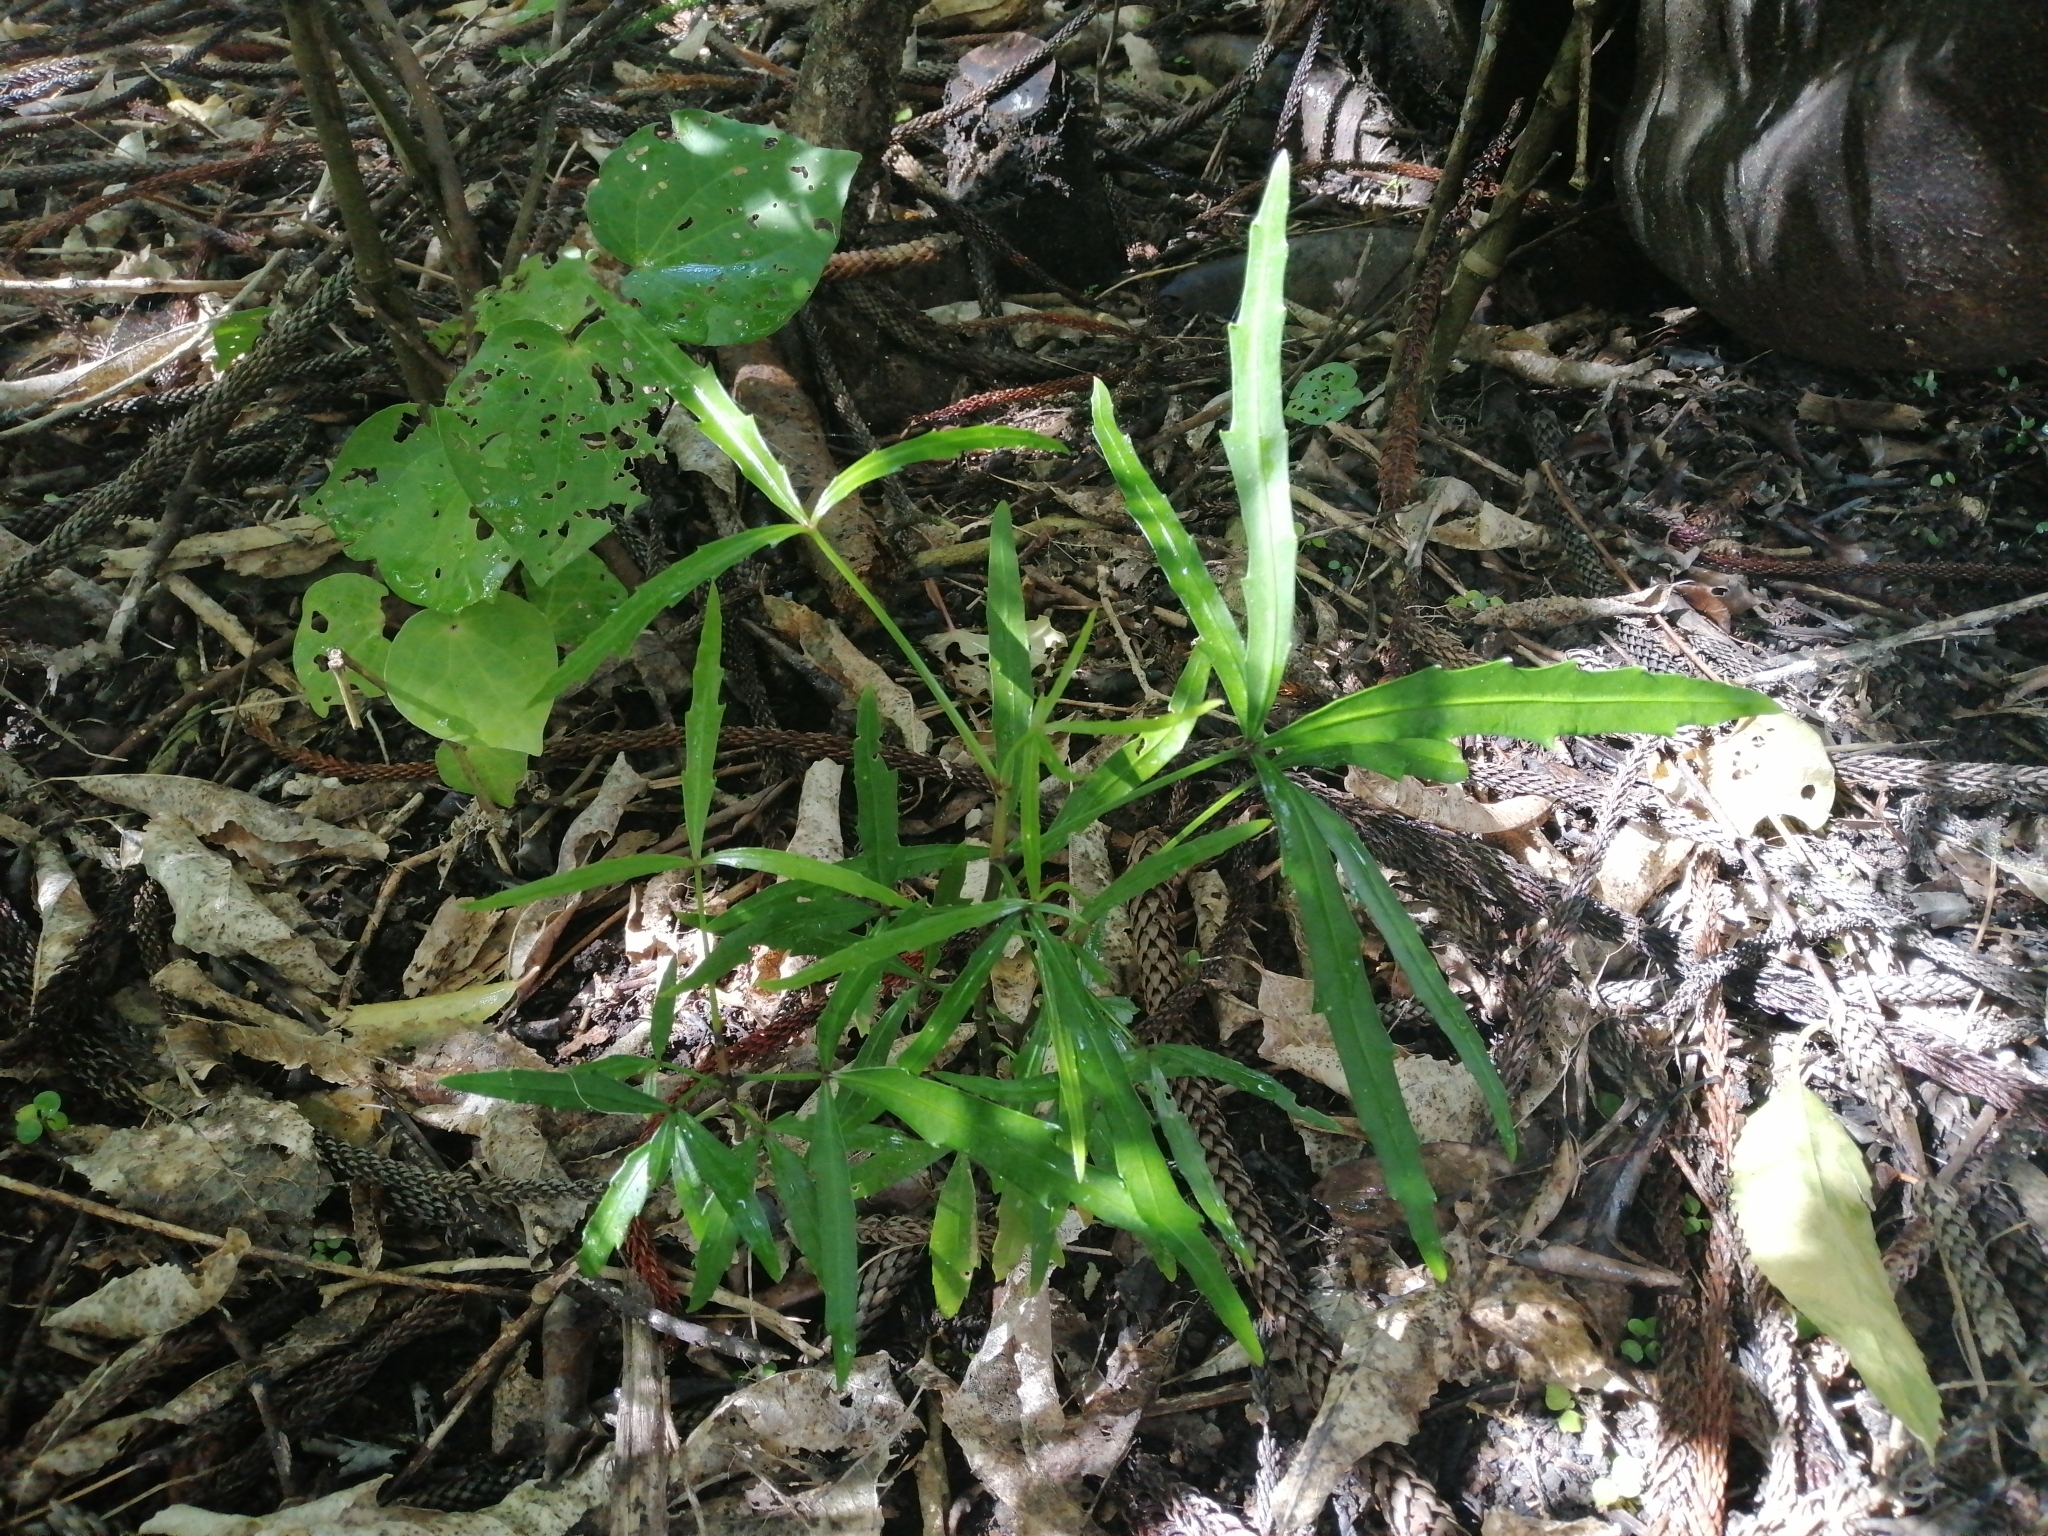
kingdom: Plantae
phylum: Tracheophyta
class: Magnoliopsida
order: Apiales
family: Araliaceae
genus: Pseudopanax
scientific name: Pseudopanax
